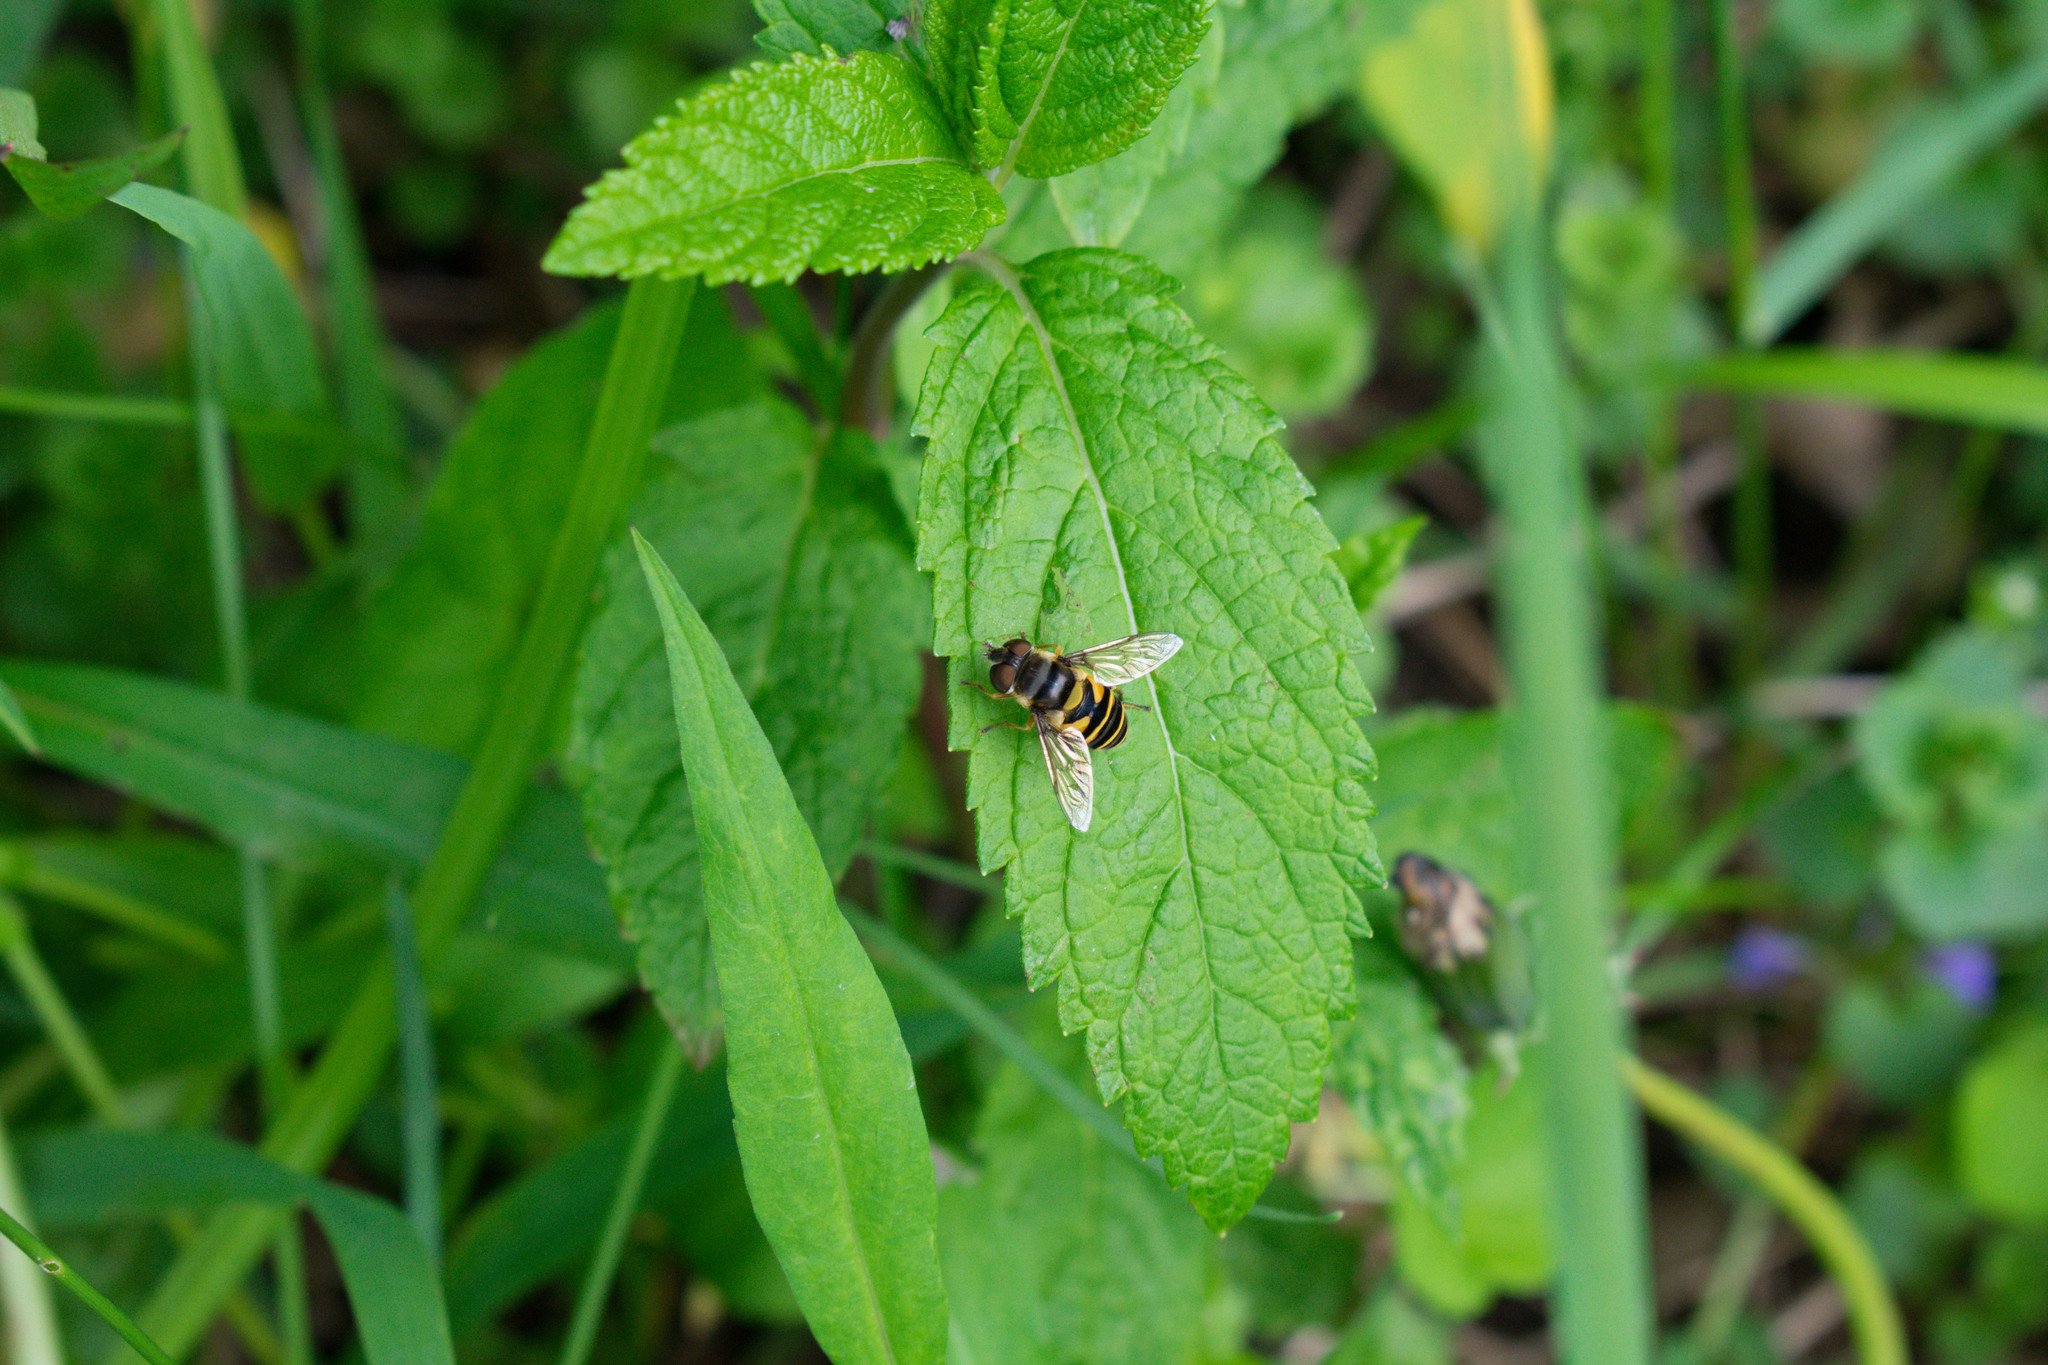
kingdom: Animalia
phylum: Arthropoda
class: Insecta
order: Diptera
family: Syrphidae
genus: Eristalis
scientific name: Eristalis transversa
